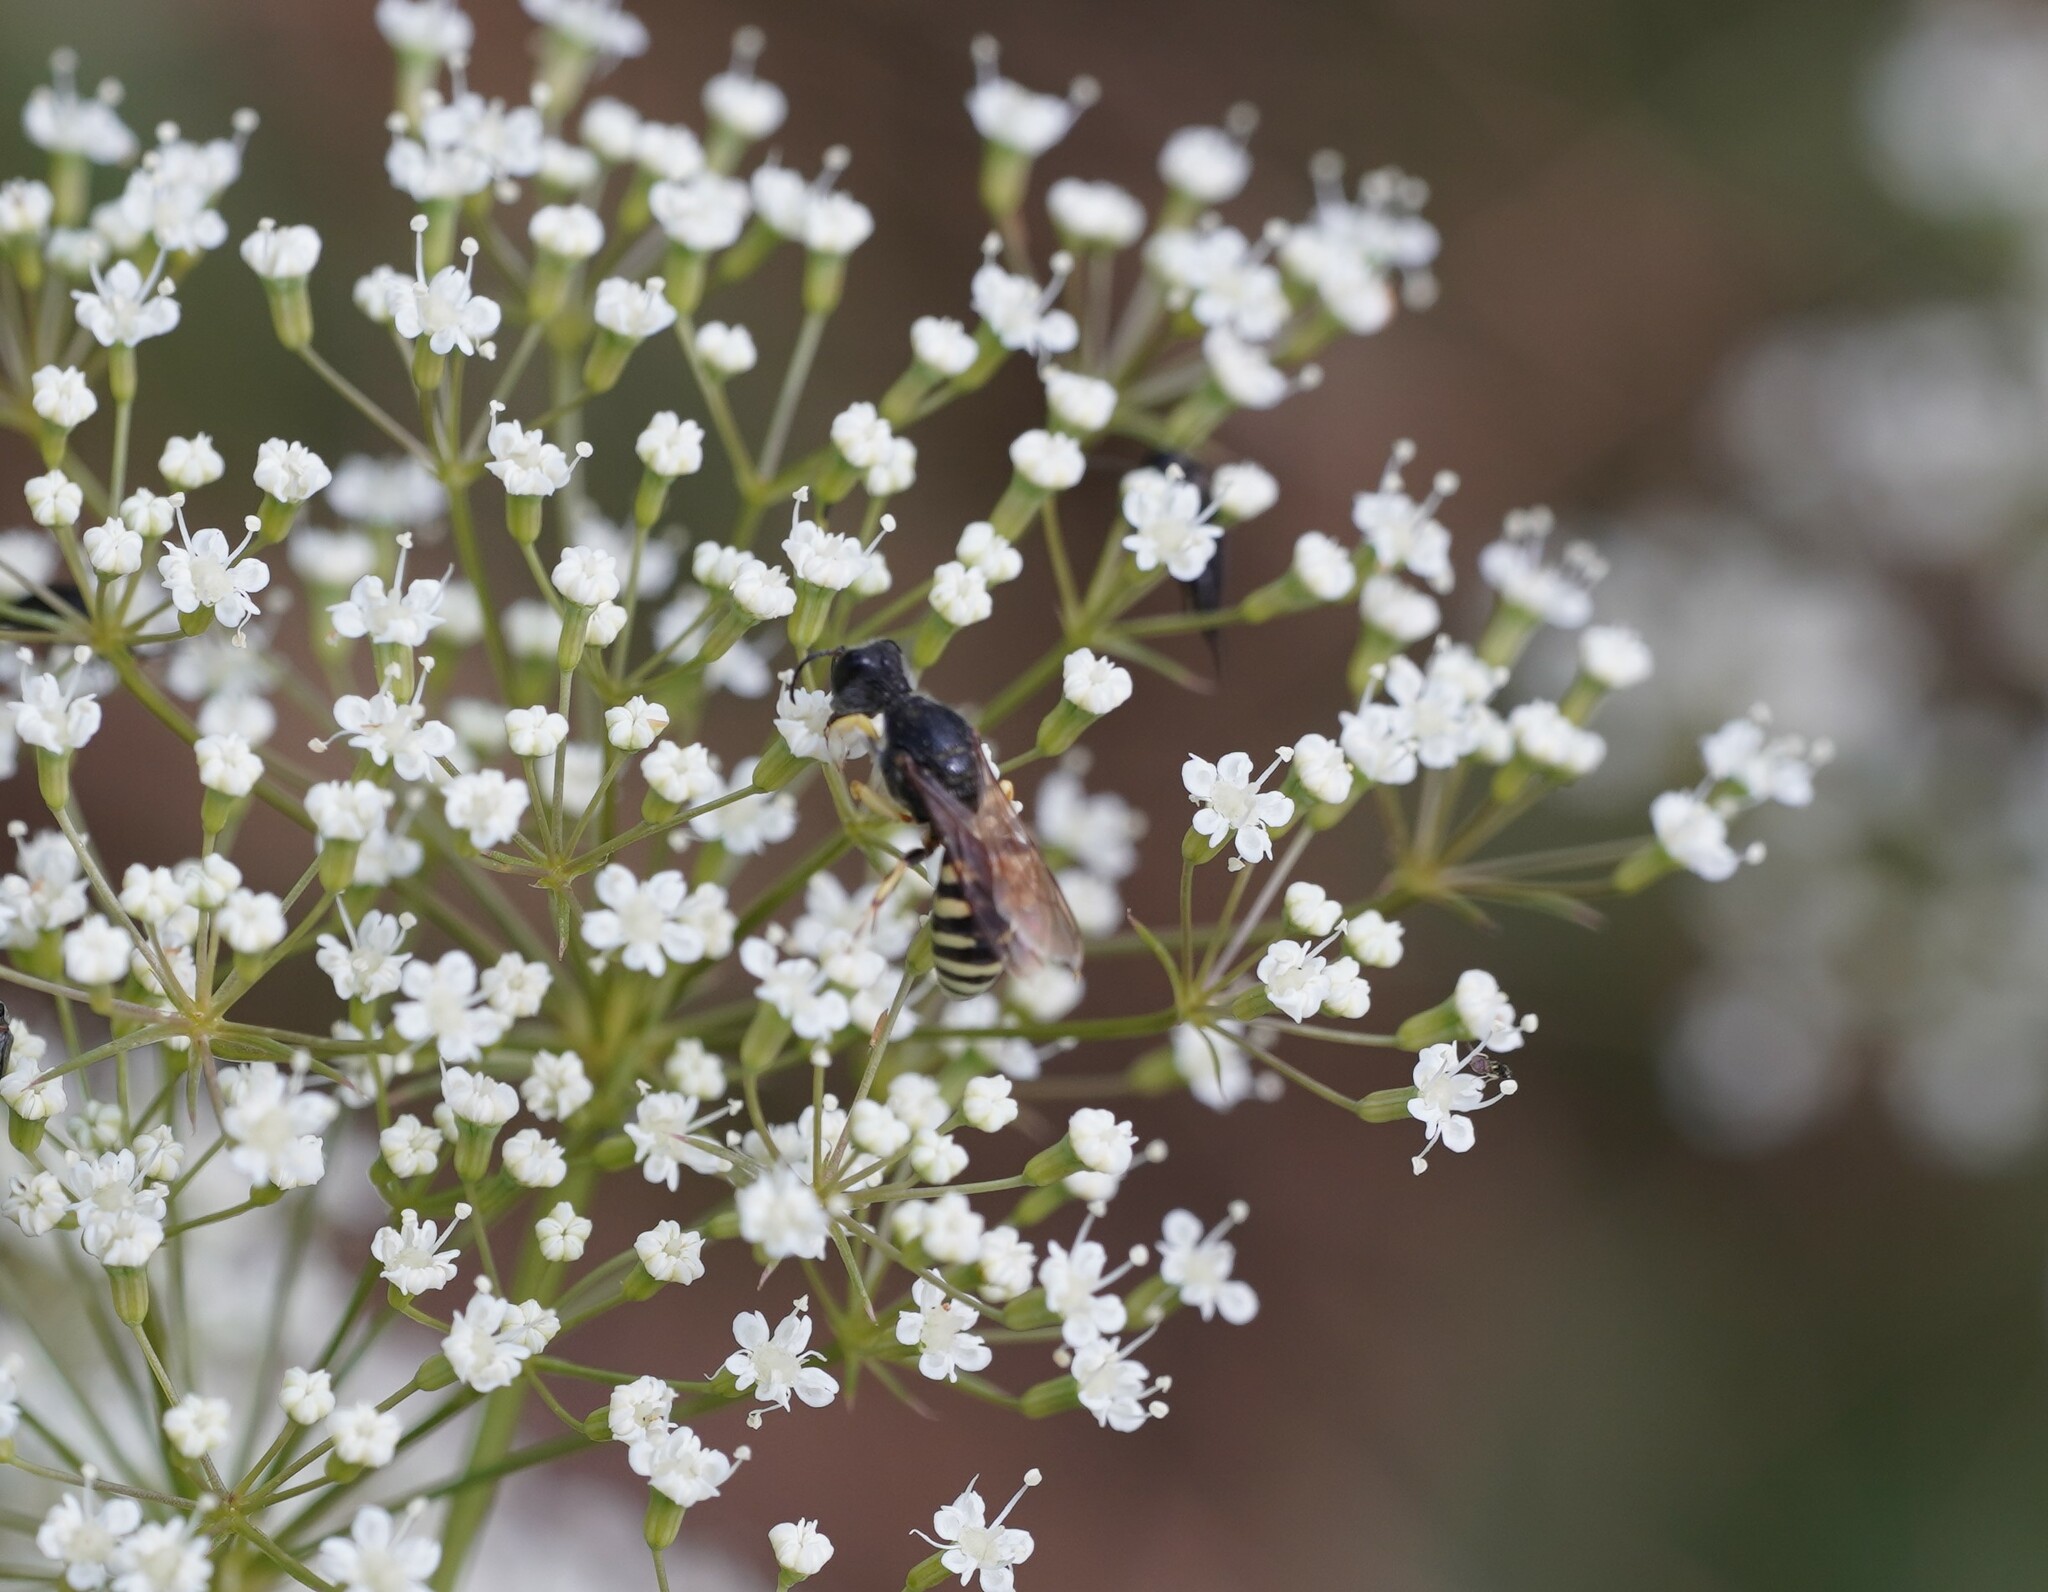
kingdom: Animalia
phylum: Arthropoda
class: Insecta
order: Hymenoptera
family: Crabronidae
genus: Lestica
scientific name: Lestica clypeata
